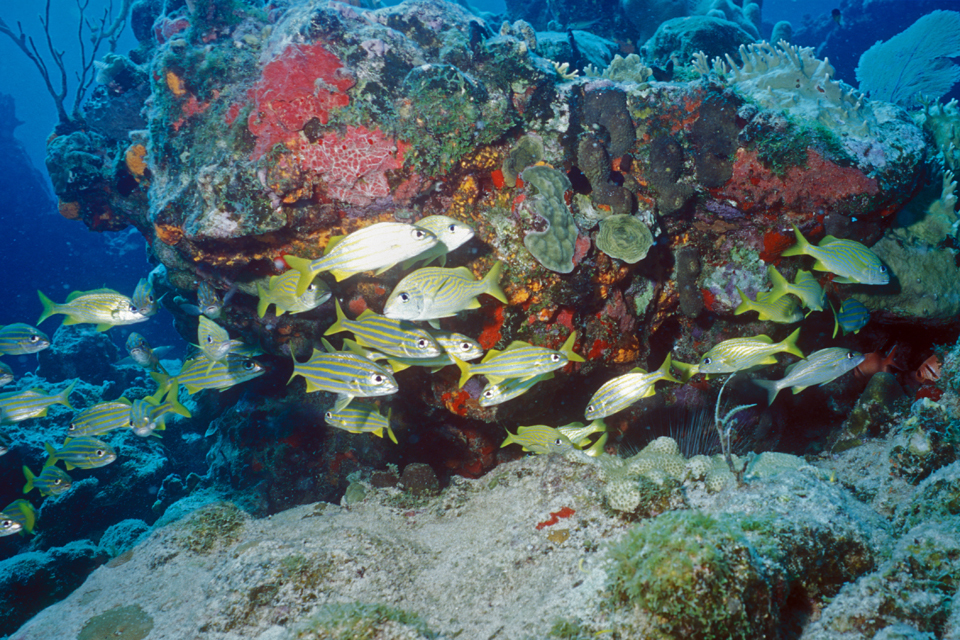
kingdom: Animalia
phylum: Chordata
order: Perciformes
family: Haemulidae
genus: Haemulon
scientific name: Haemulon chrysargyreum
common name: Smallmouth grunt
